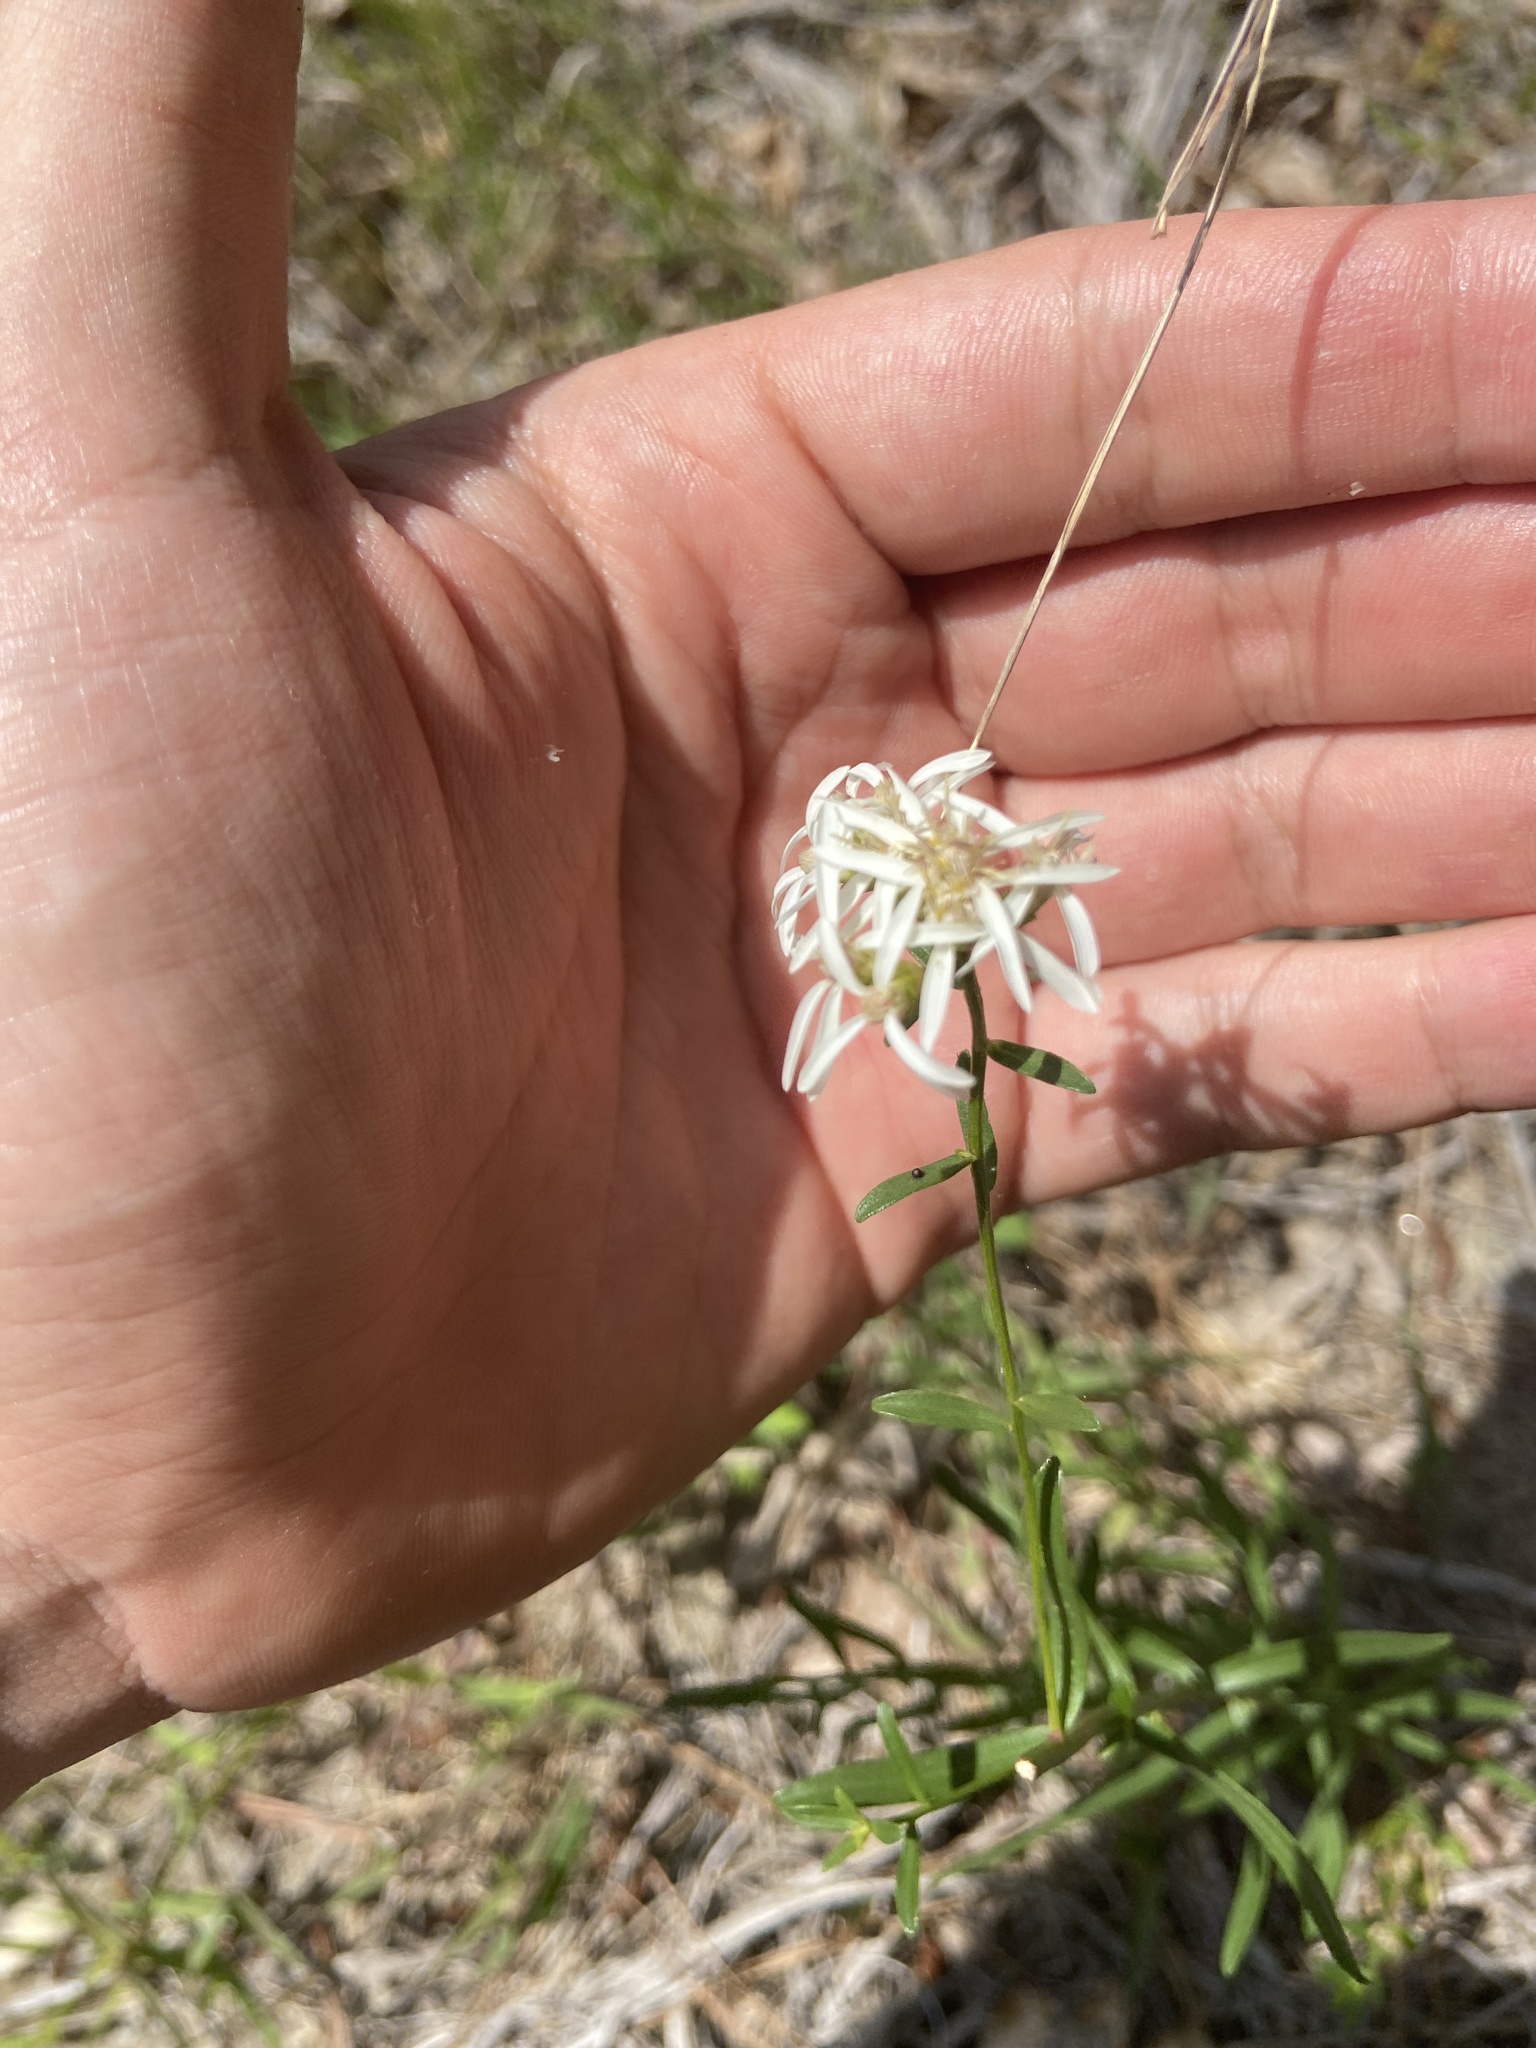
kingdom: Plantae
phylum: Tracheophyta
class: Magnoliopsida
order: Asterales
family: Asteraceae
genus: Sericocarpus
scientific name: Sericocarpus linifolius
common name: Narrow-leaf aster
